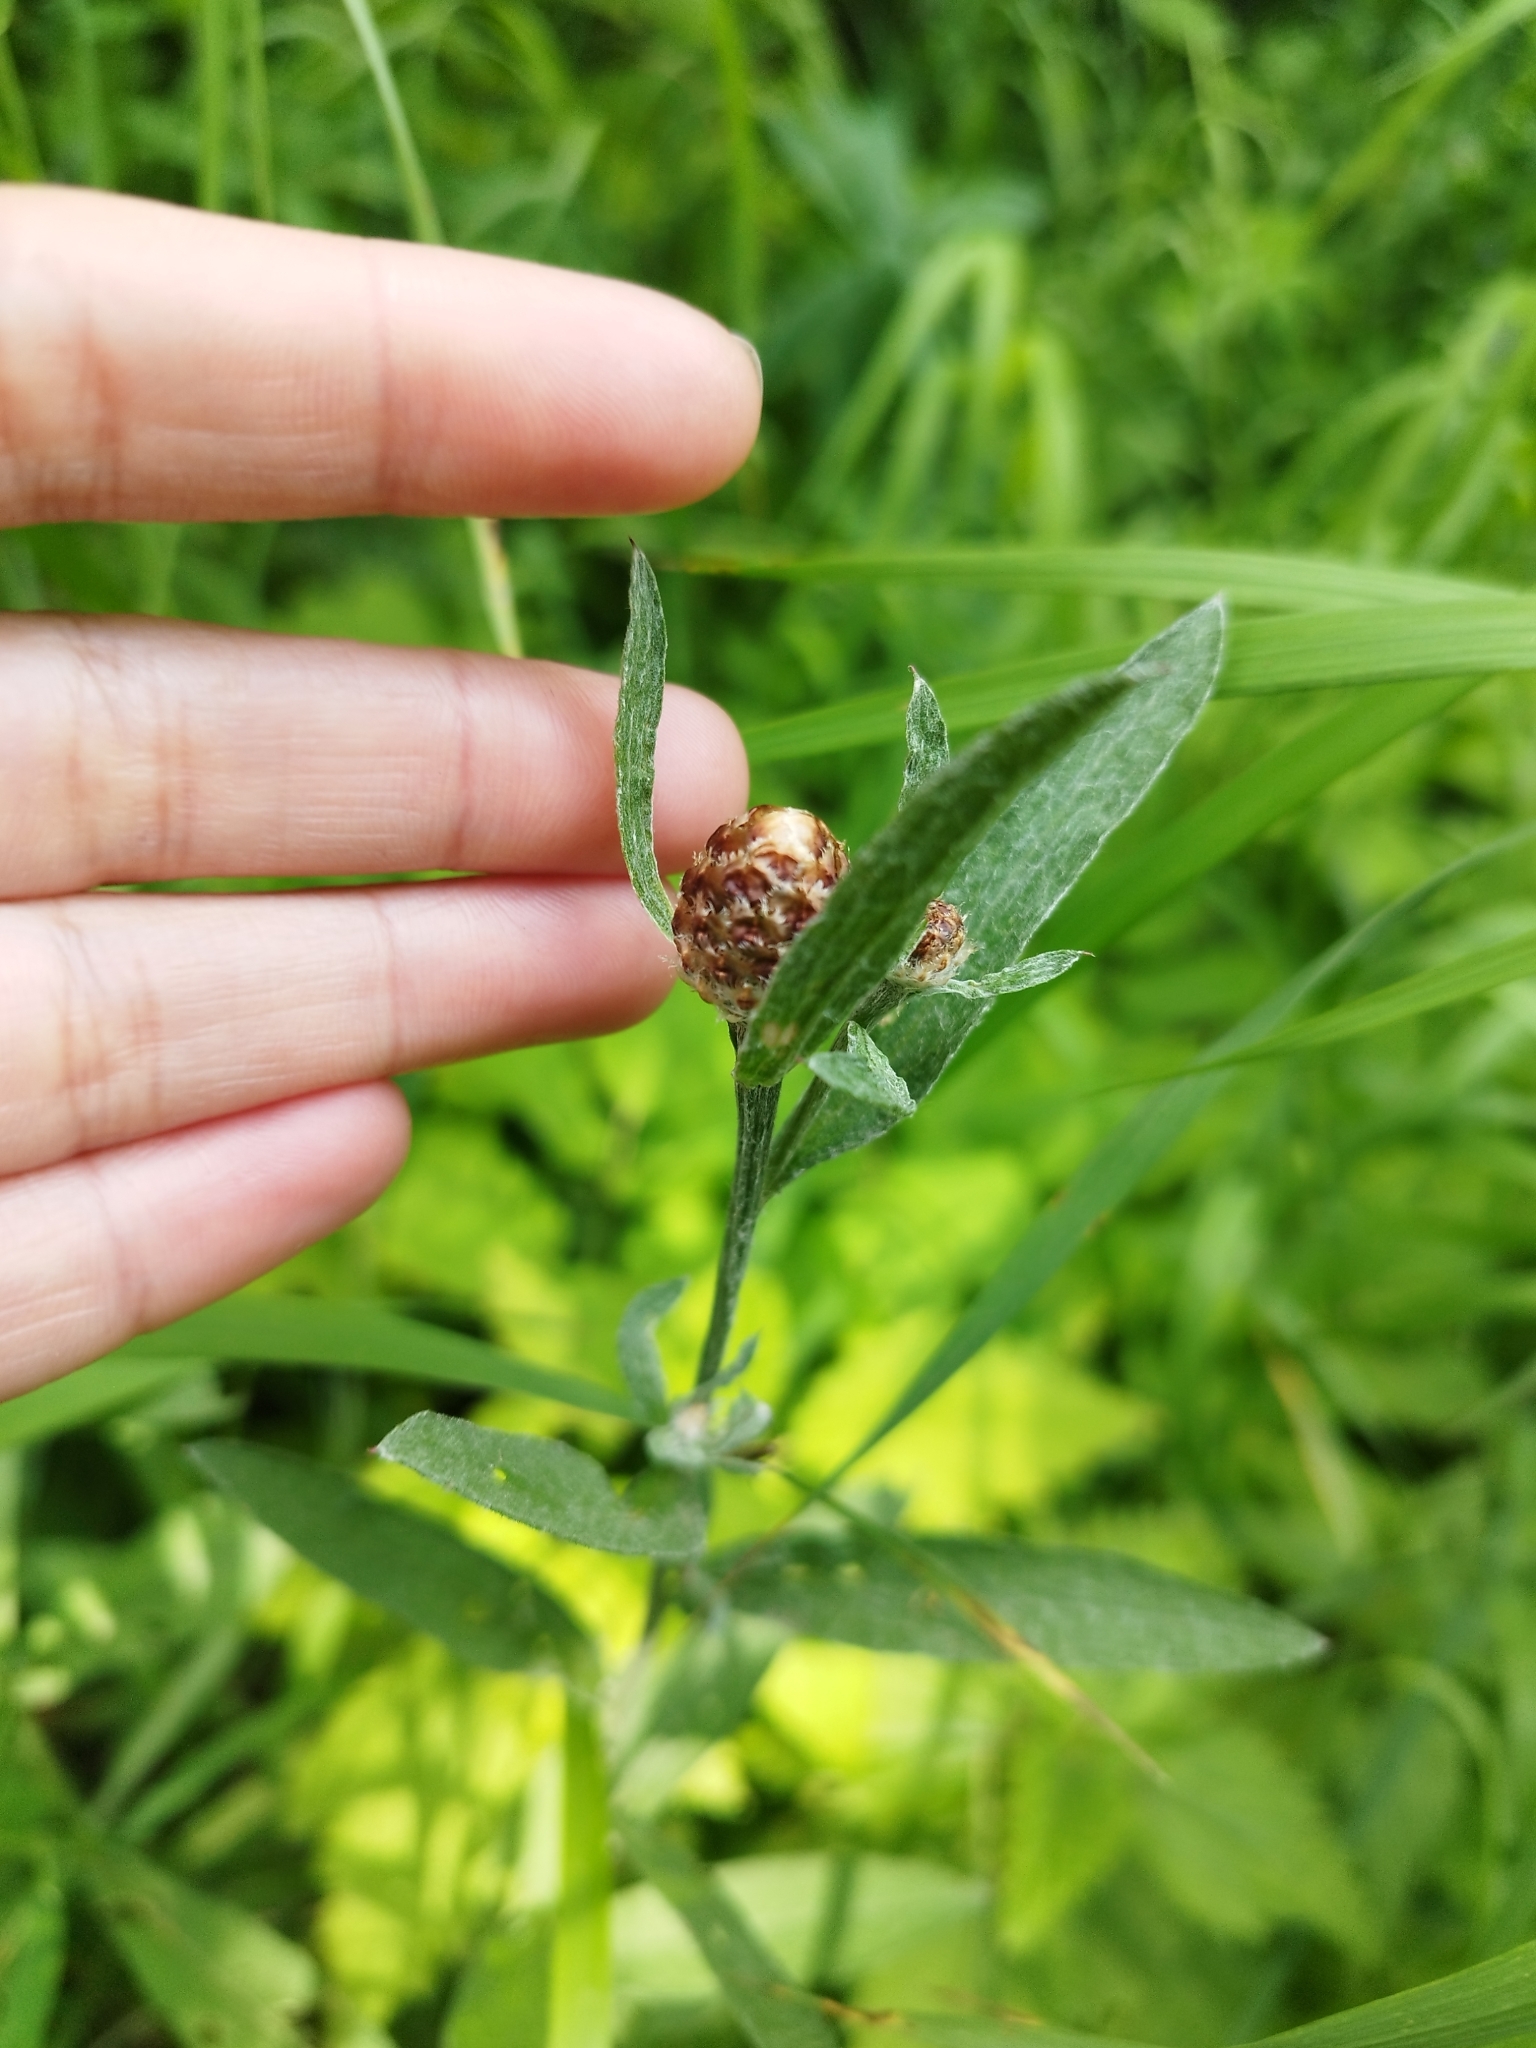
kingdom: Plantae
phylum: Tracheophyta
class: Magnoliopsida
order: Asterales
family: Asteraceae
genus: Centaurea
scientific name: Centaurea jacea
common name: Brown knapweed
